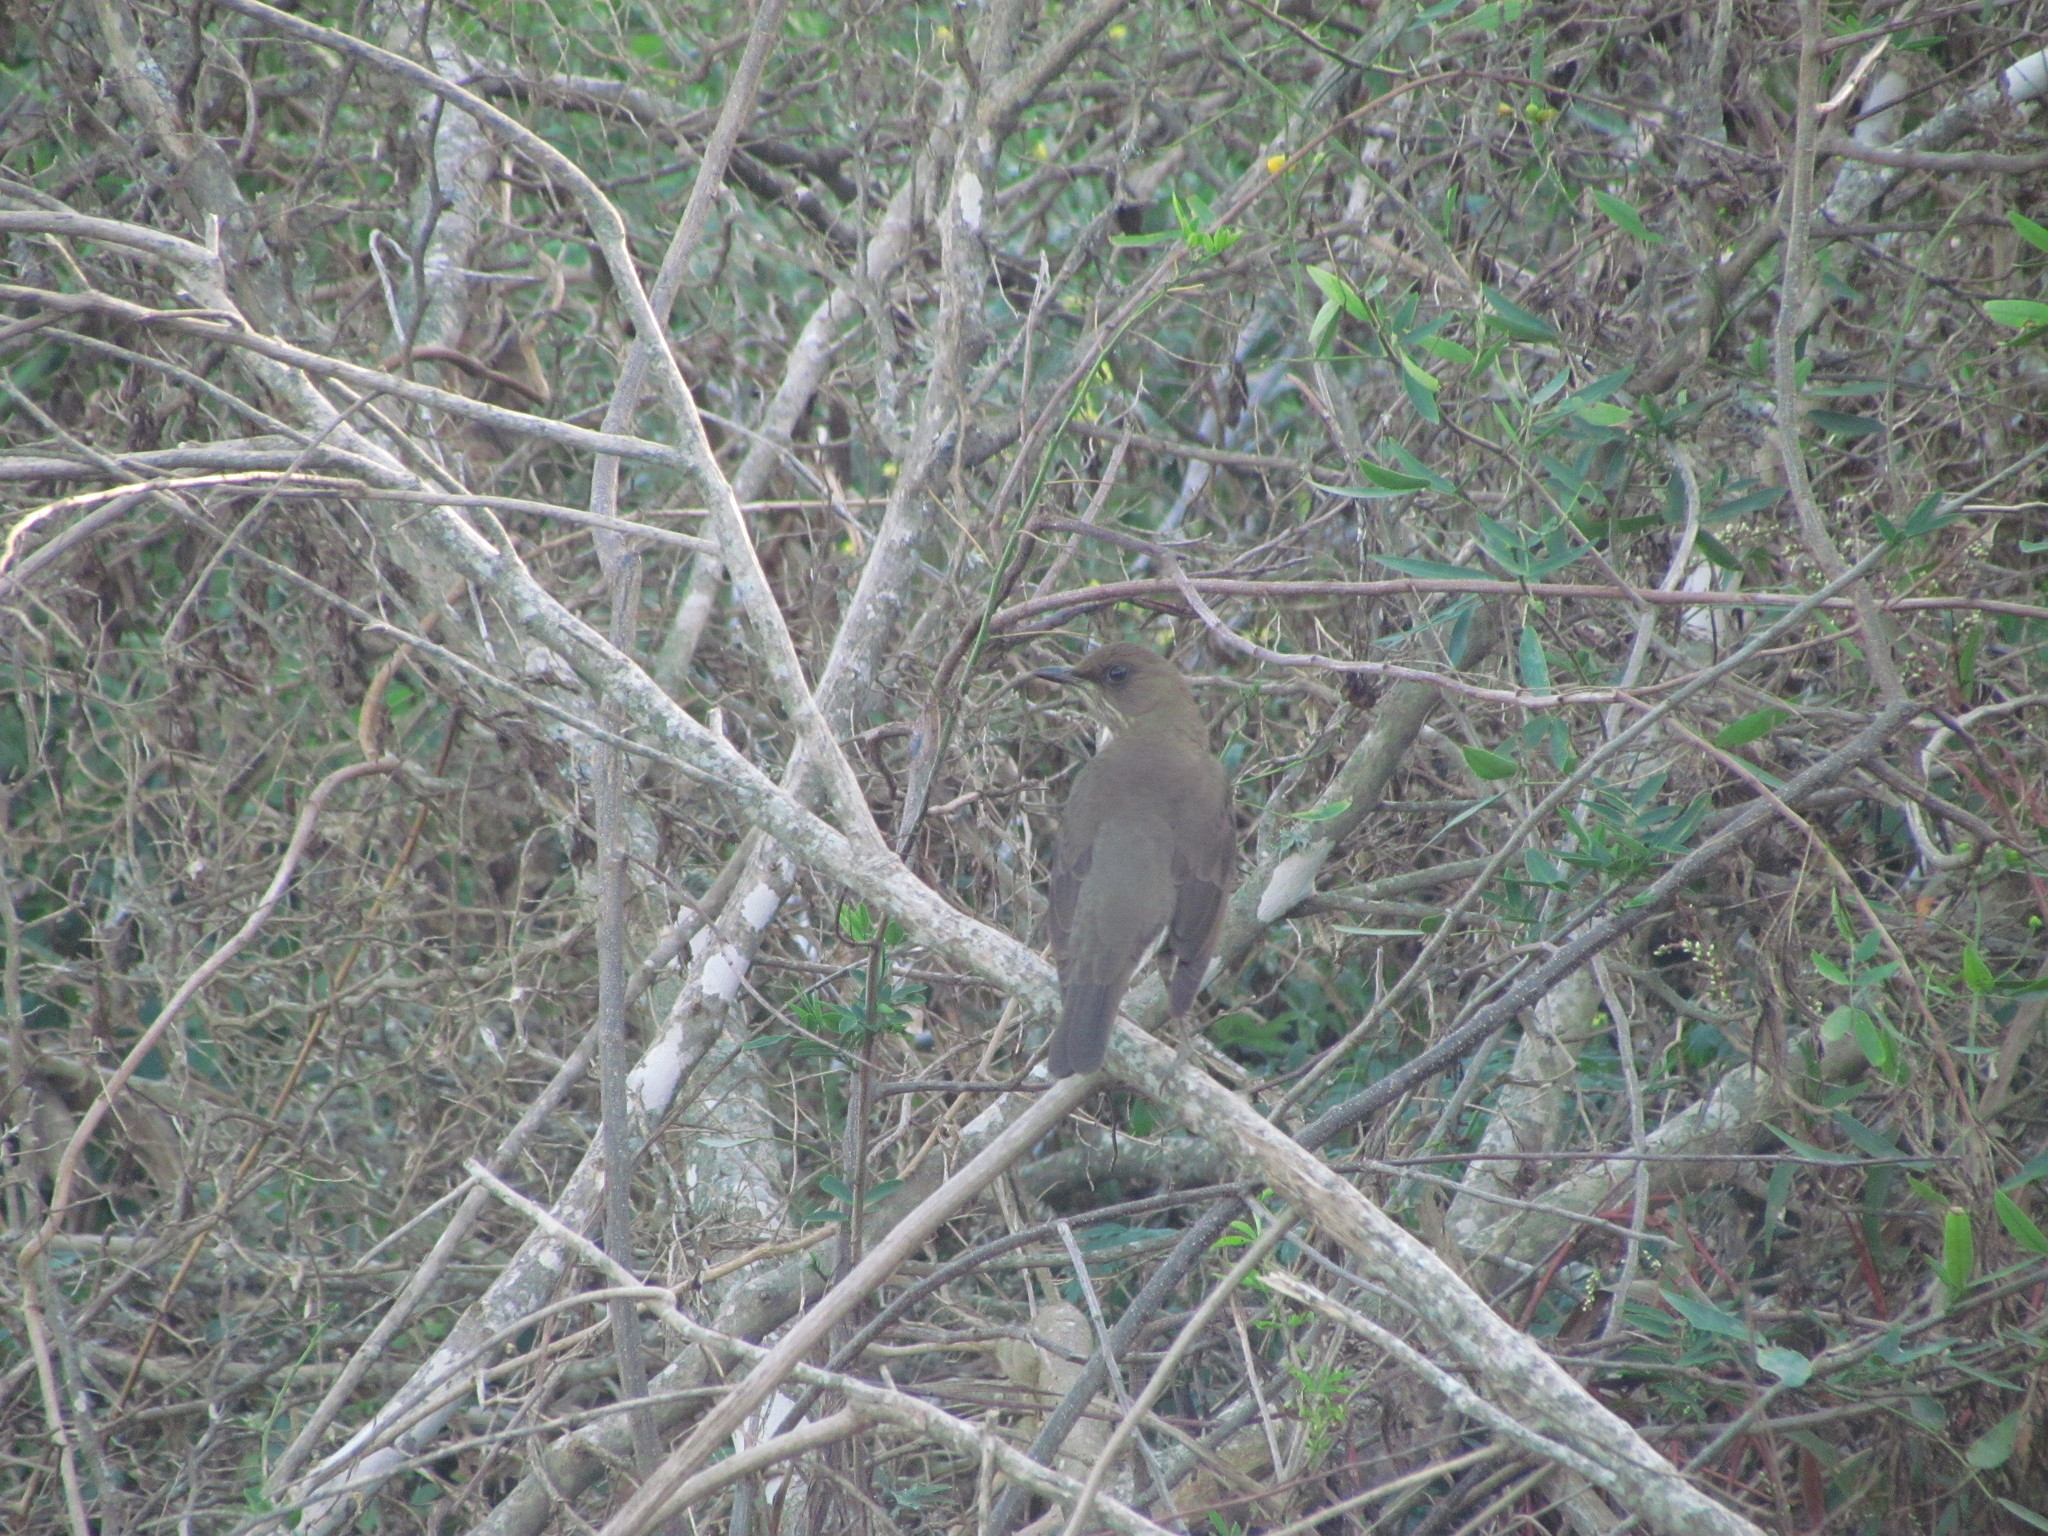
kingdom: Animalia
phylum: Chordata
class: Aves
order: Passeriformes
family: Turdidae
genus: Turdus
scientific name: Turdus amaurochalinus
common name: Creamy-bellied thrush
